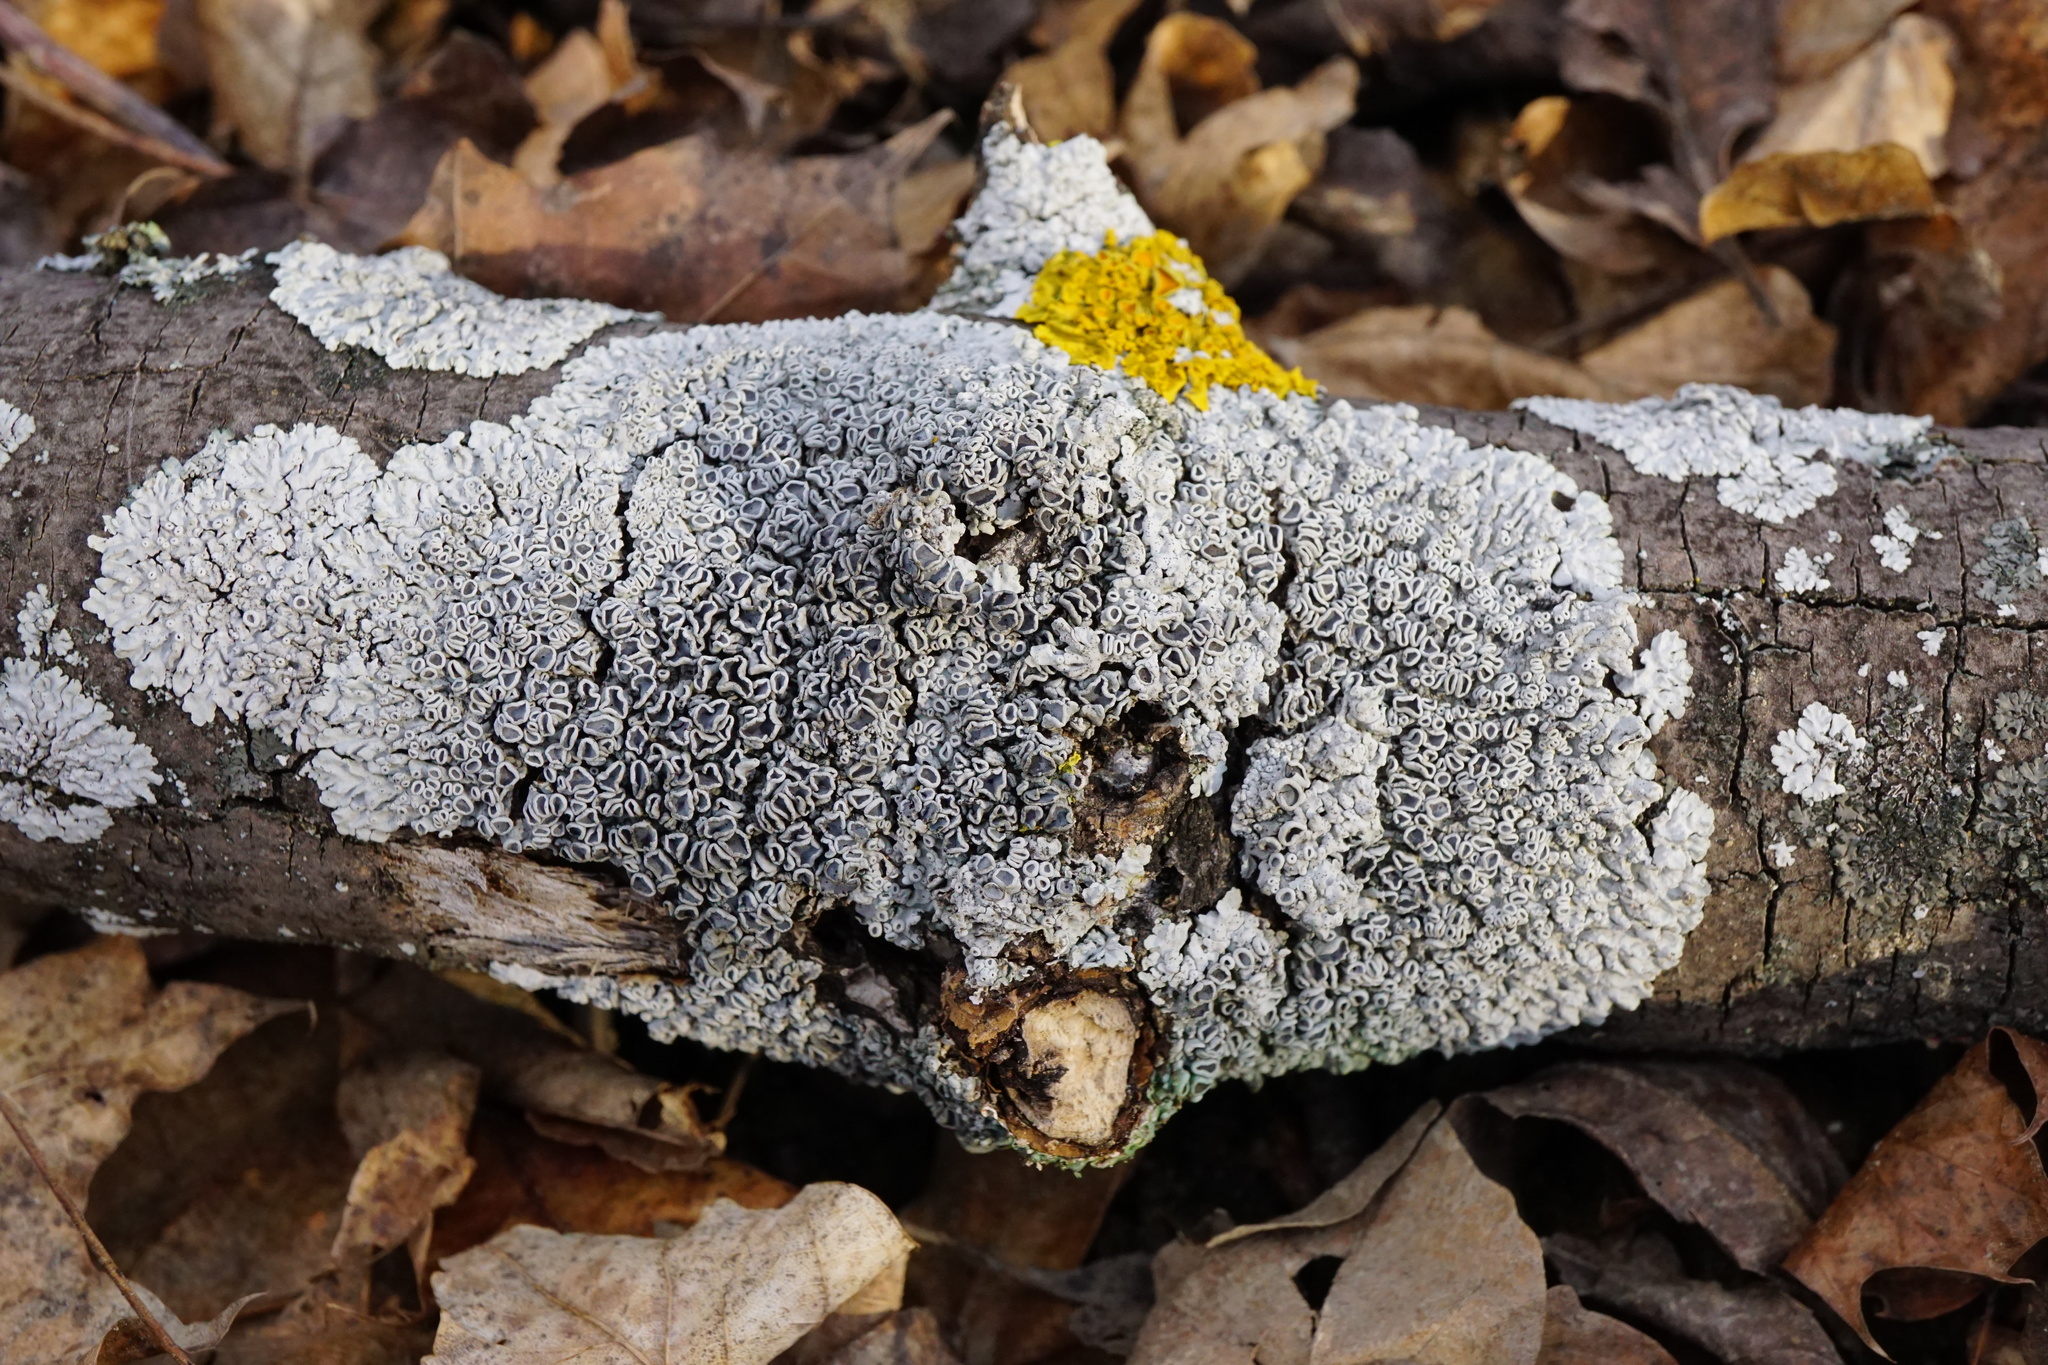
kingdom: Fungi
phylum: Ascomycota
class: Lecanoromycetes
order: Caliciales
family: Physciaceae
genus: Physcia
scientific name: Physcia stellaris
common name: Star rosette lichen
